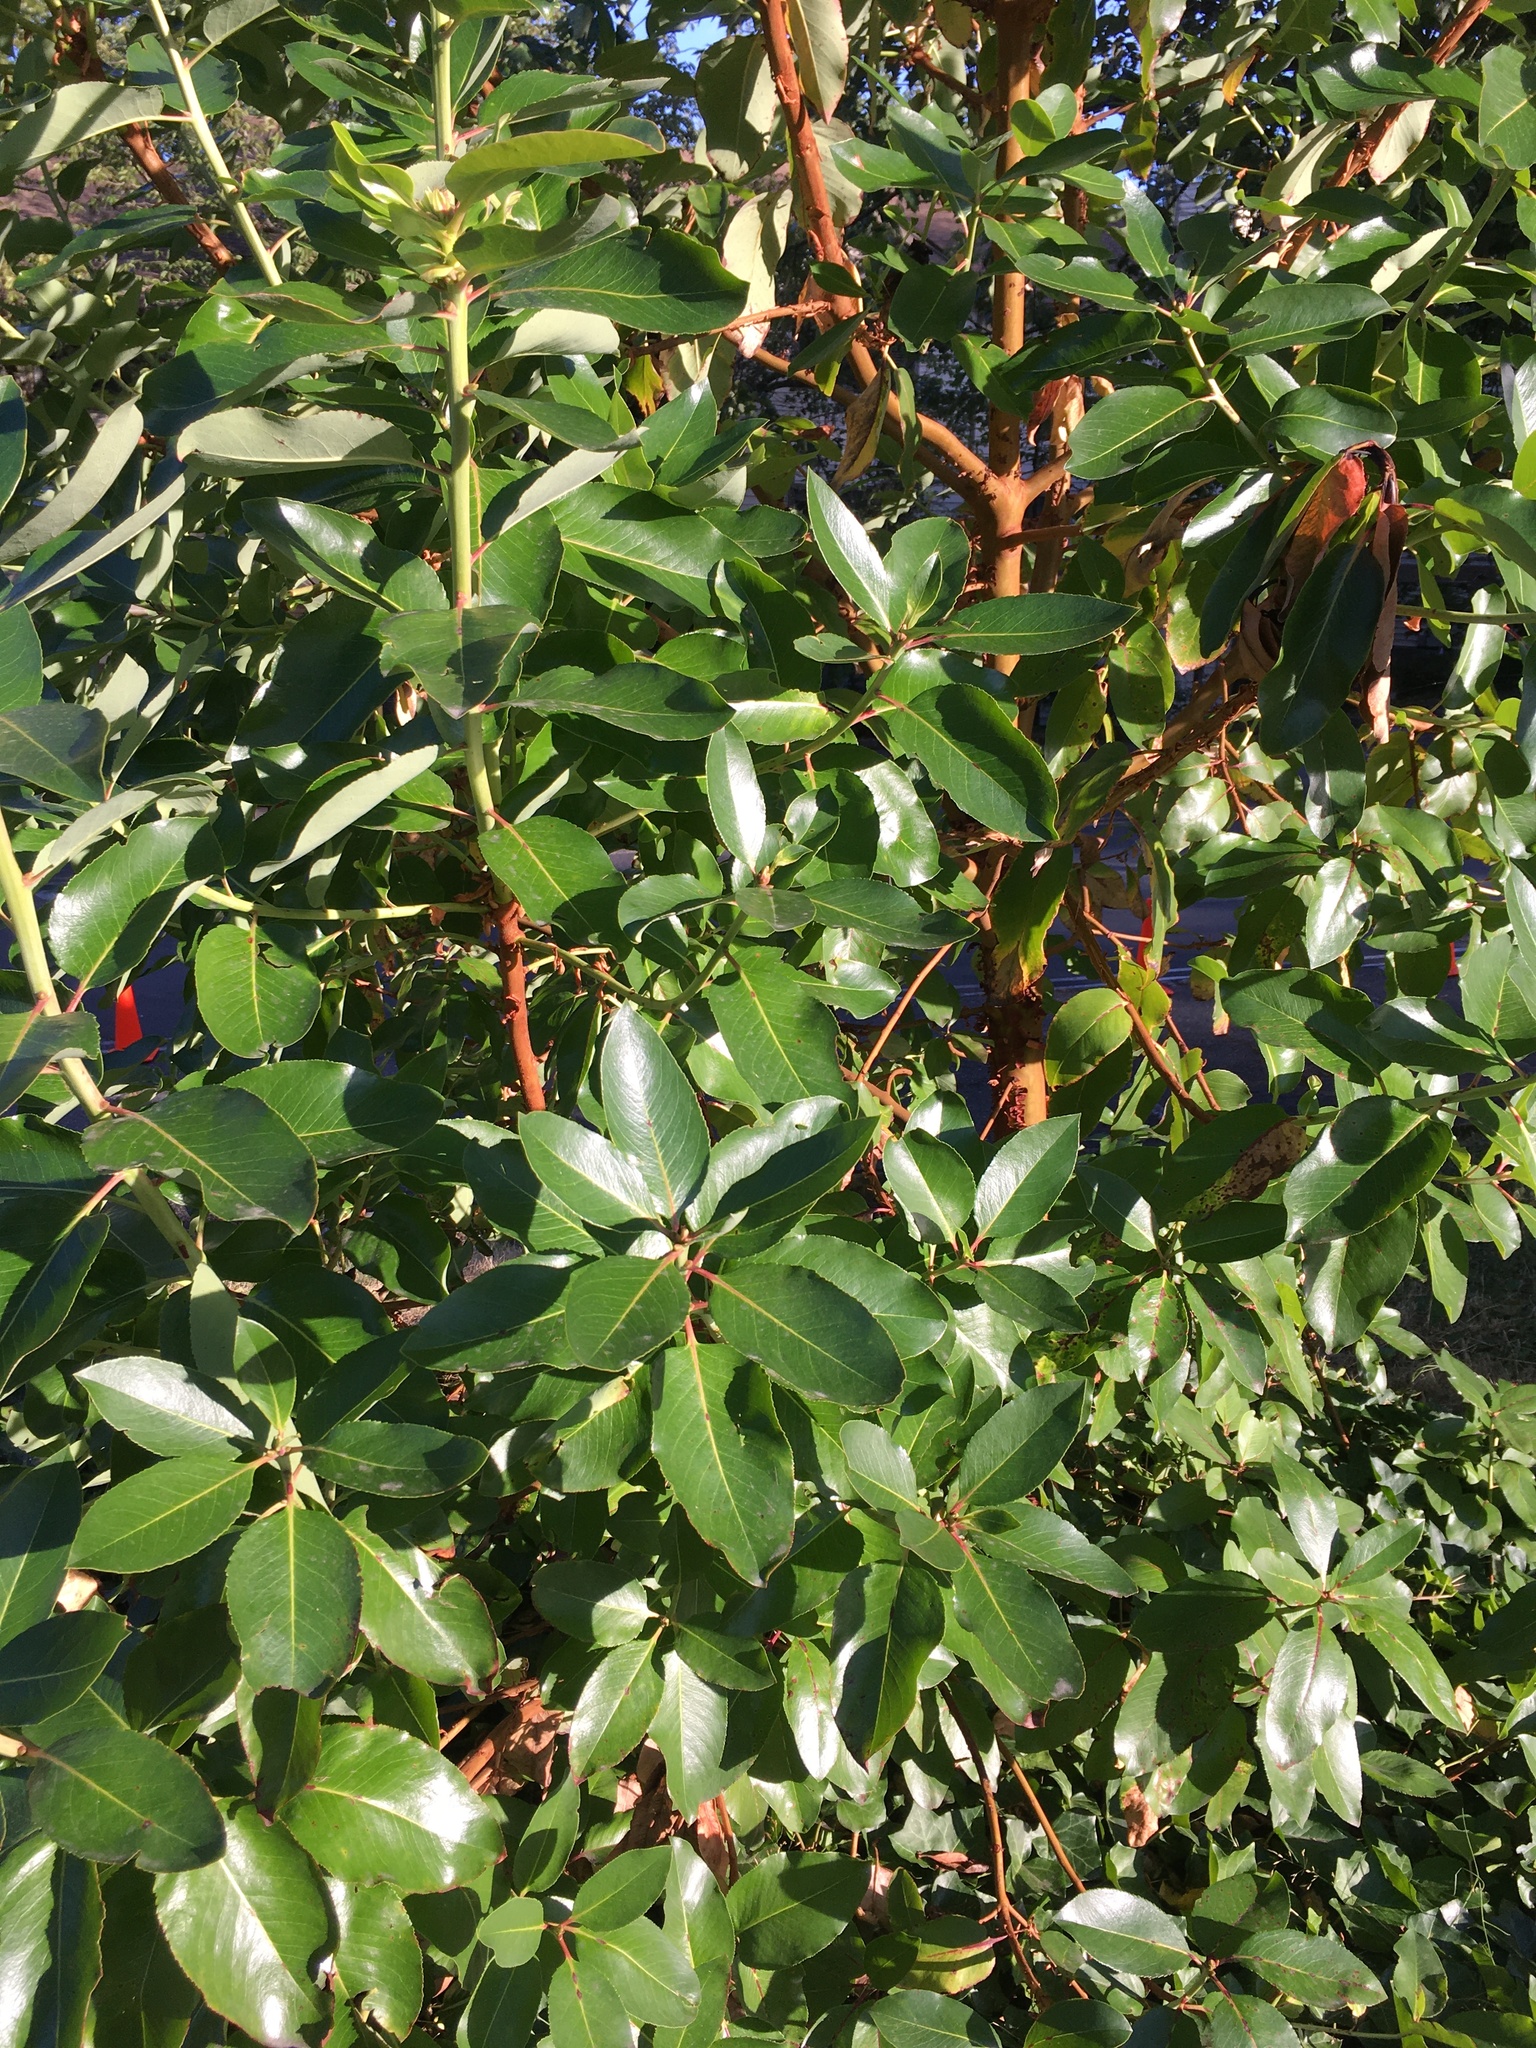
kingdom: Plantae
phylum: Tracheophyta
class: Magnoliopsida
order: Ericales
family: Ericaceae
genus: Arbutus
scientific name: Arbutus menziesii
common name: Pacific madrone
